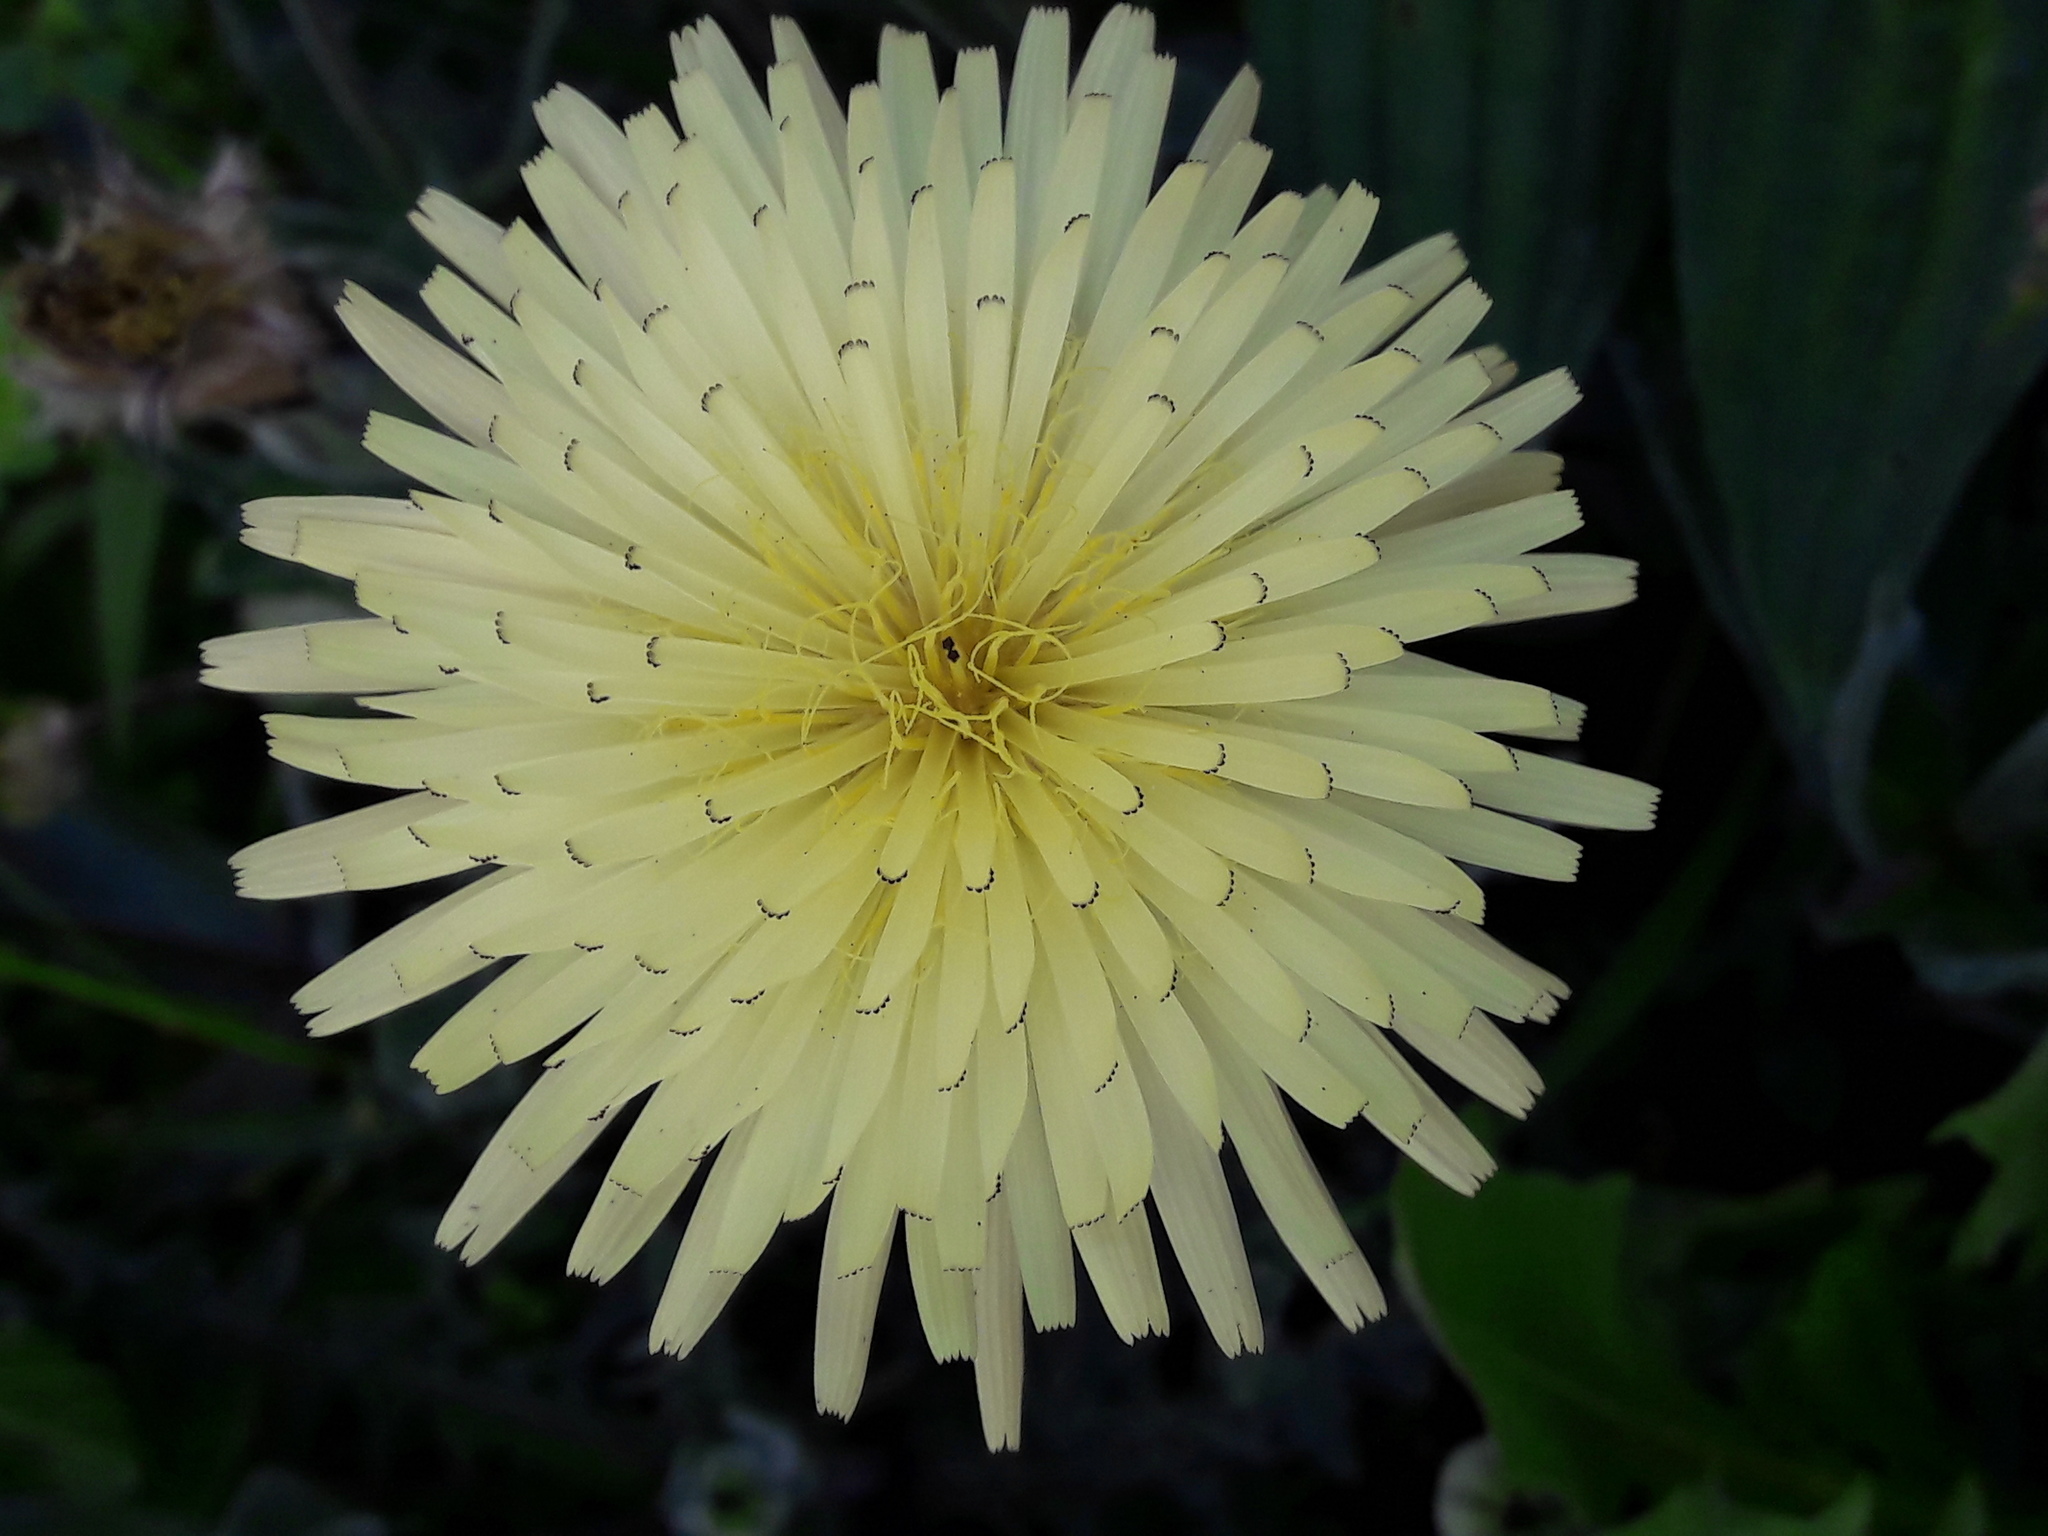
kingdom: Plantae
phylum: Tracheophyta
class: Magnoliopsida
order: Asterales
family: Asteraceae
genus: Urospermum
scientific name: Urospermum dalechampii
